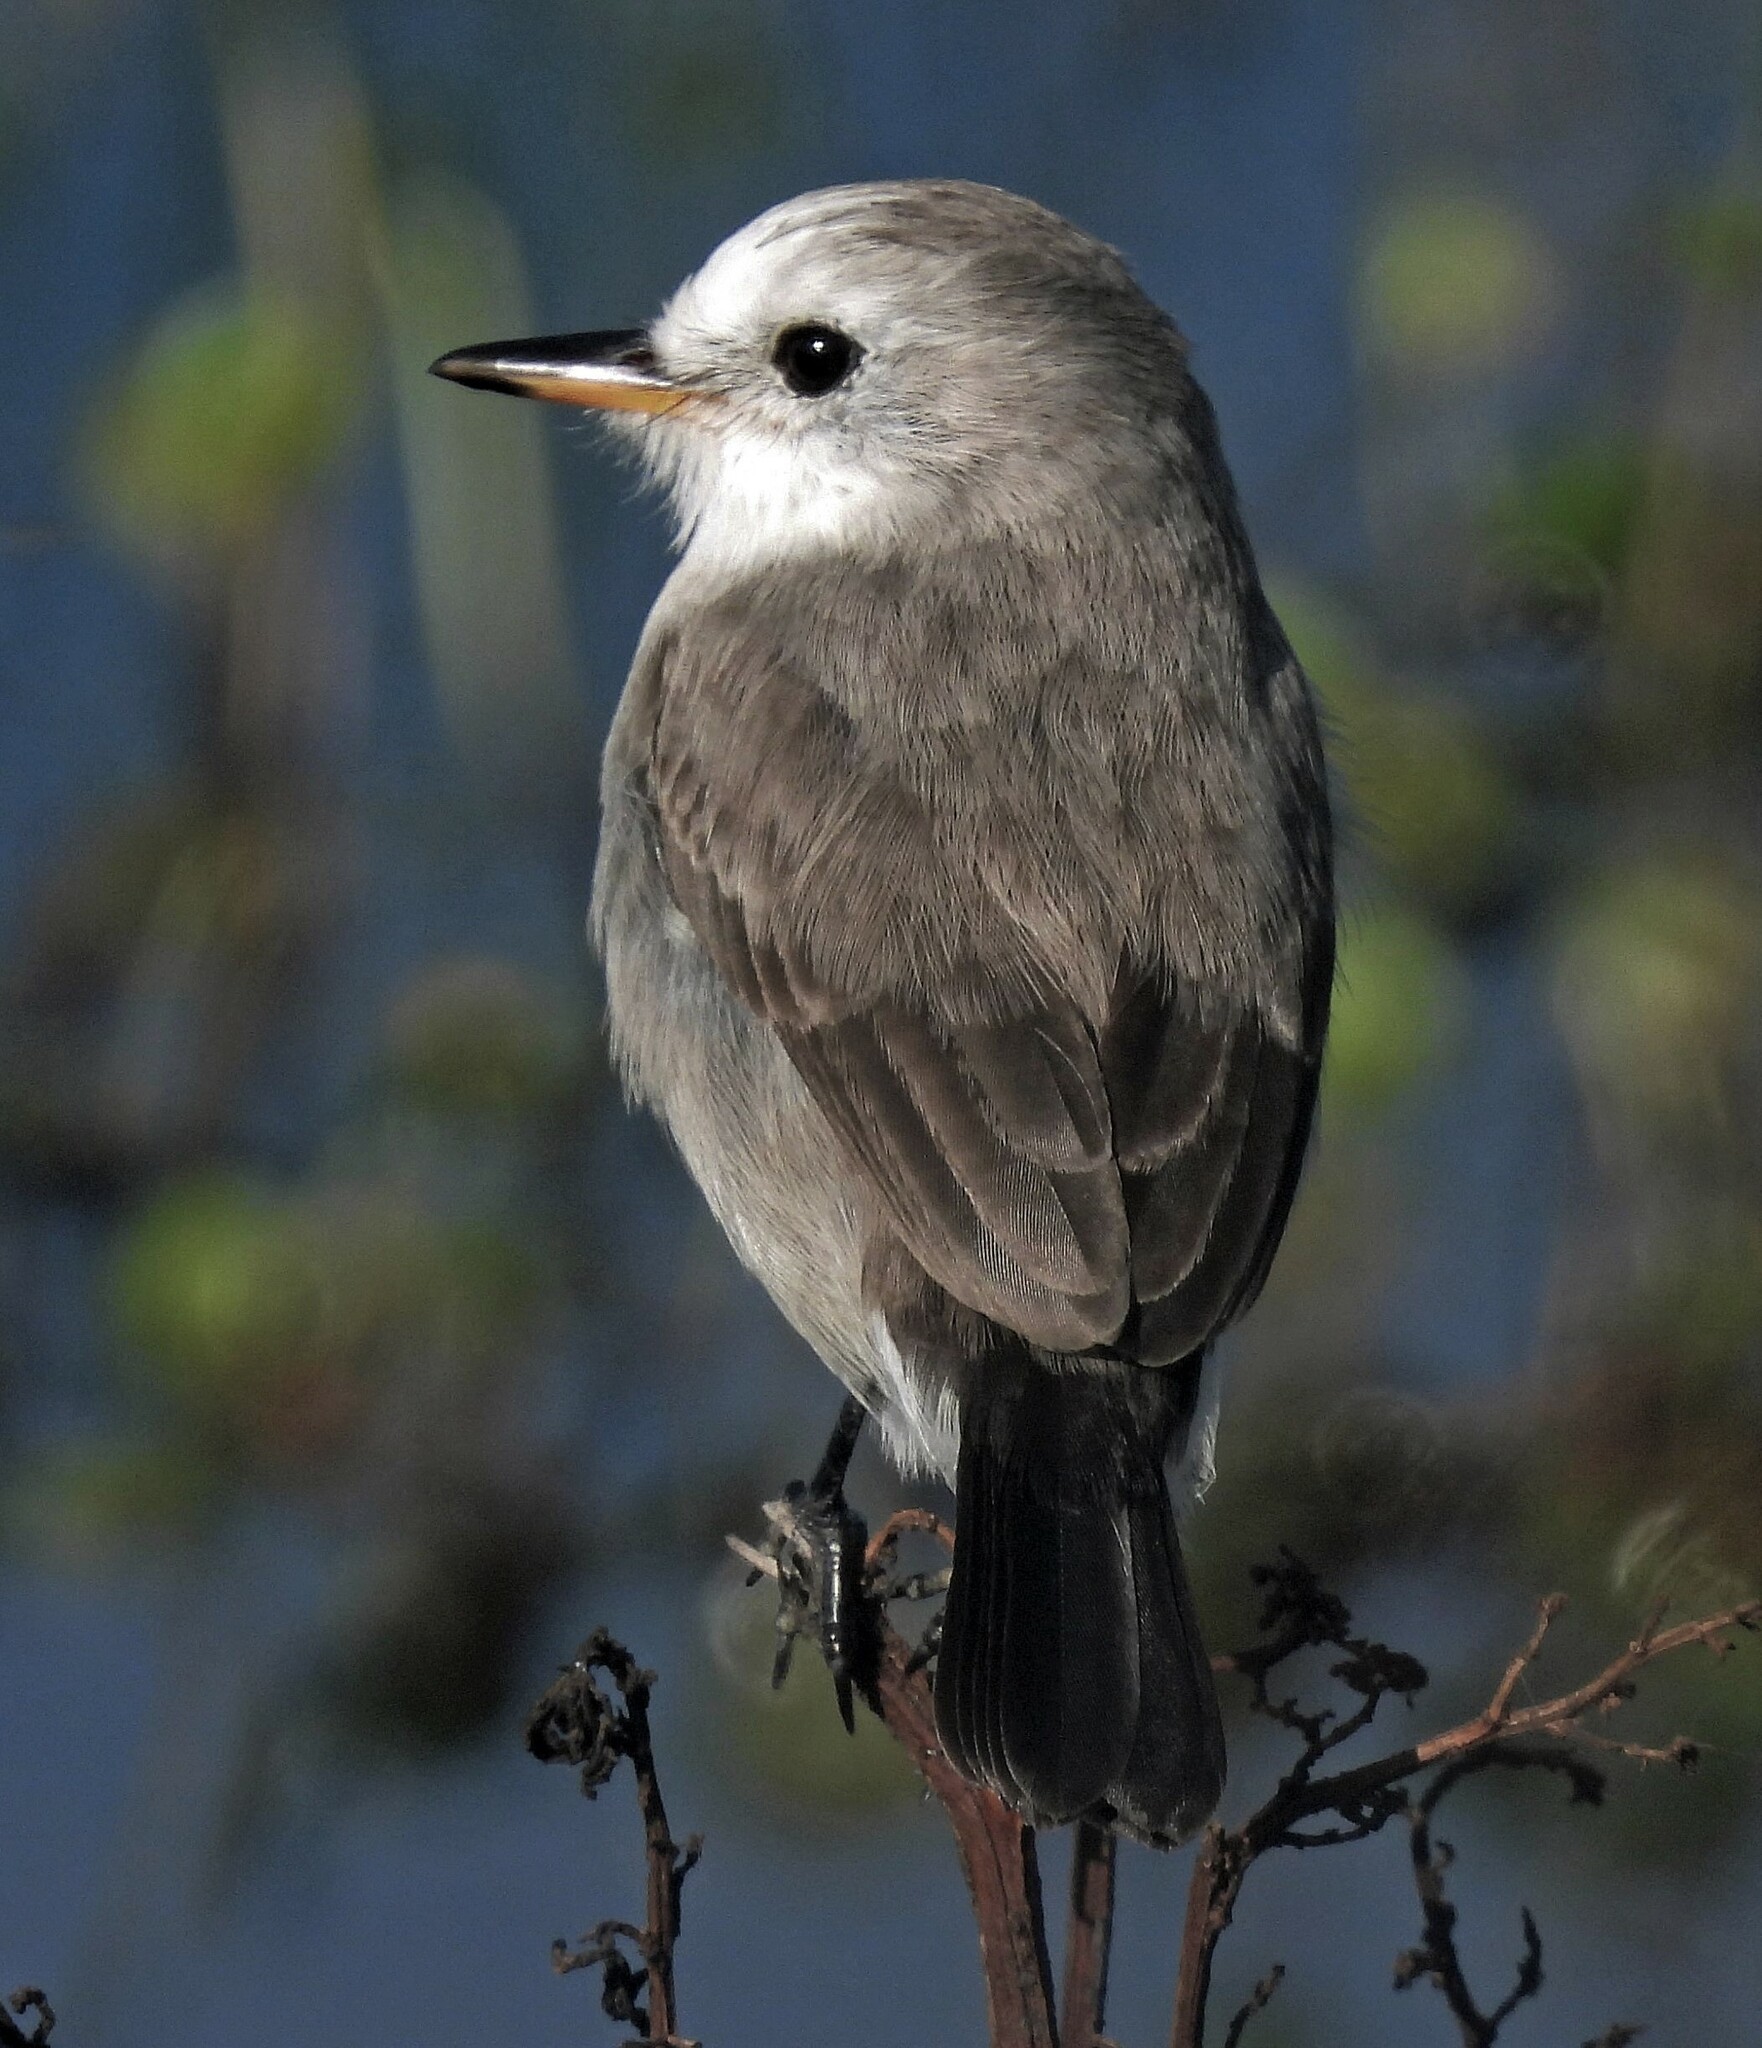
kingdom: Animalia
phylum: Chordata
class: Aves
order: Passeriformes
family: Tyrannidae
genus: Arundinicola
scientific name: Arundinicola leucocephala
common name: White-headed marsh tyrant
